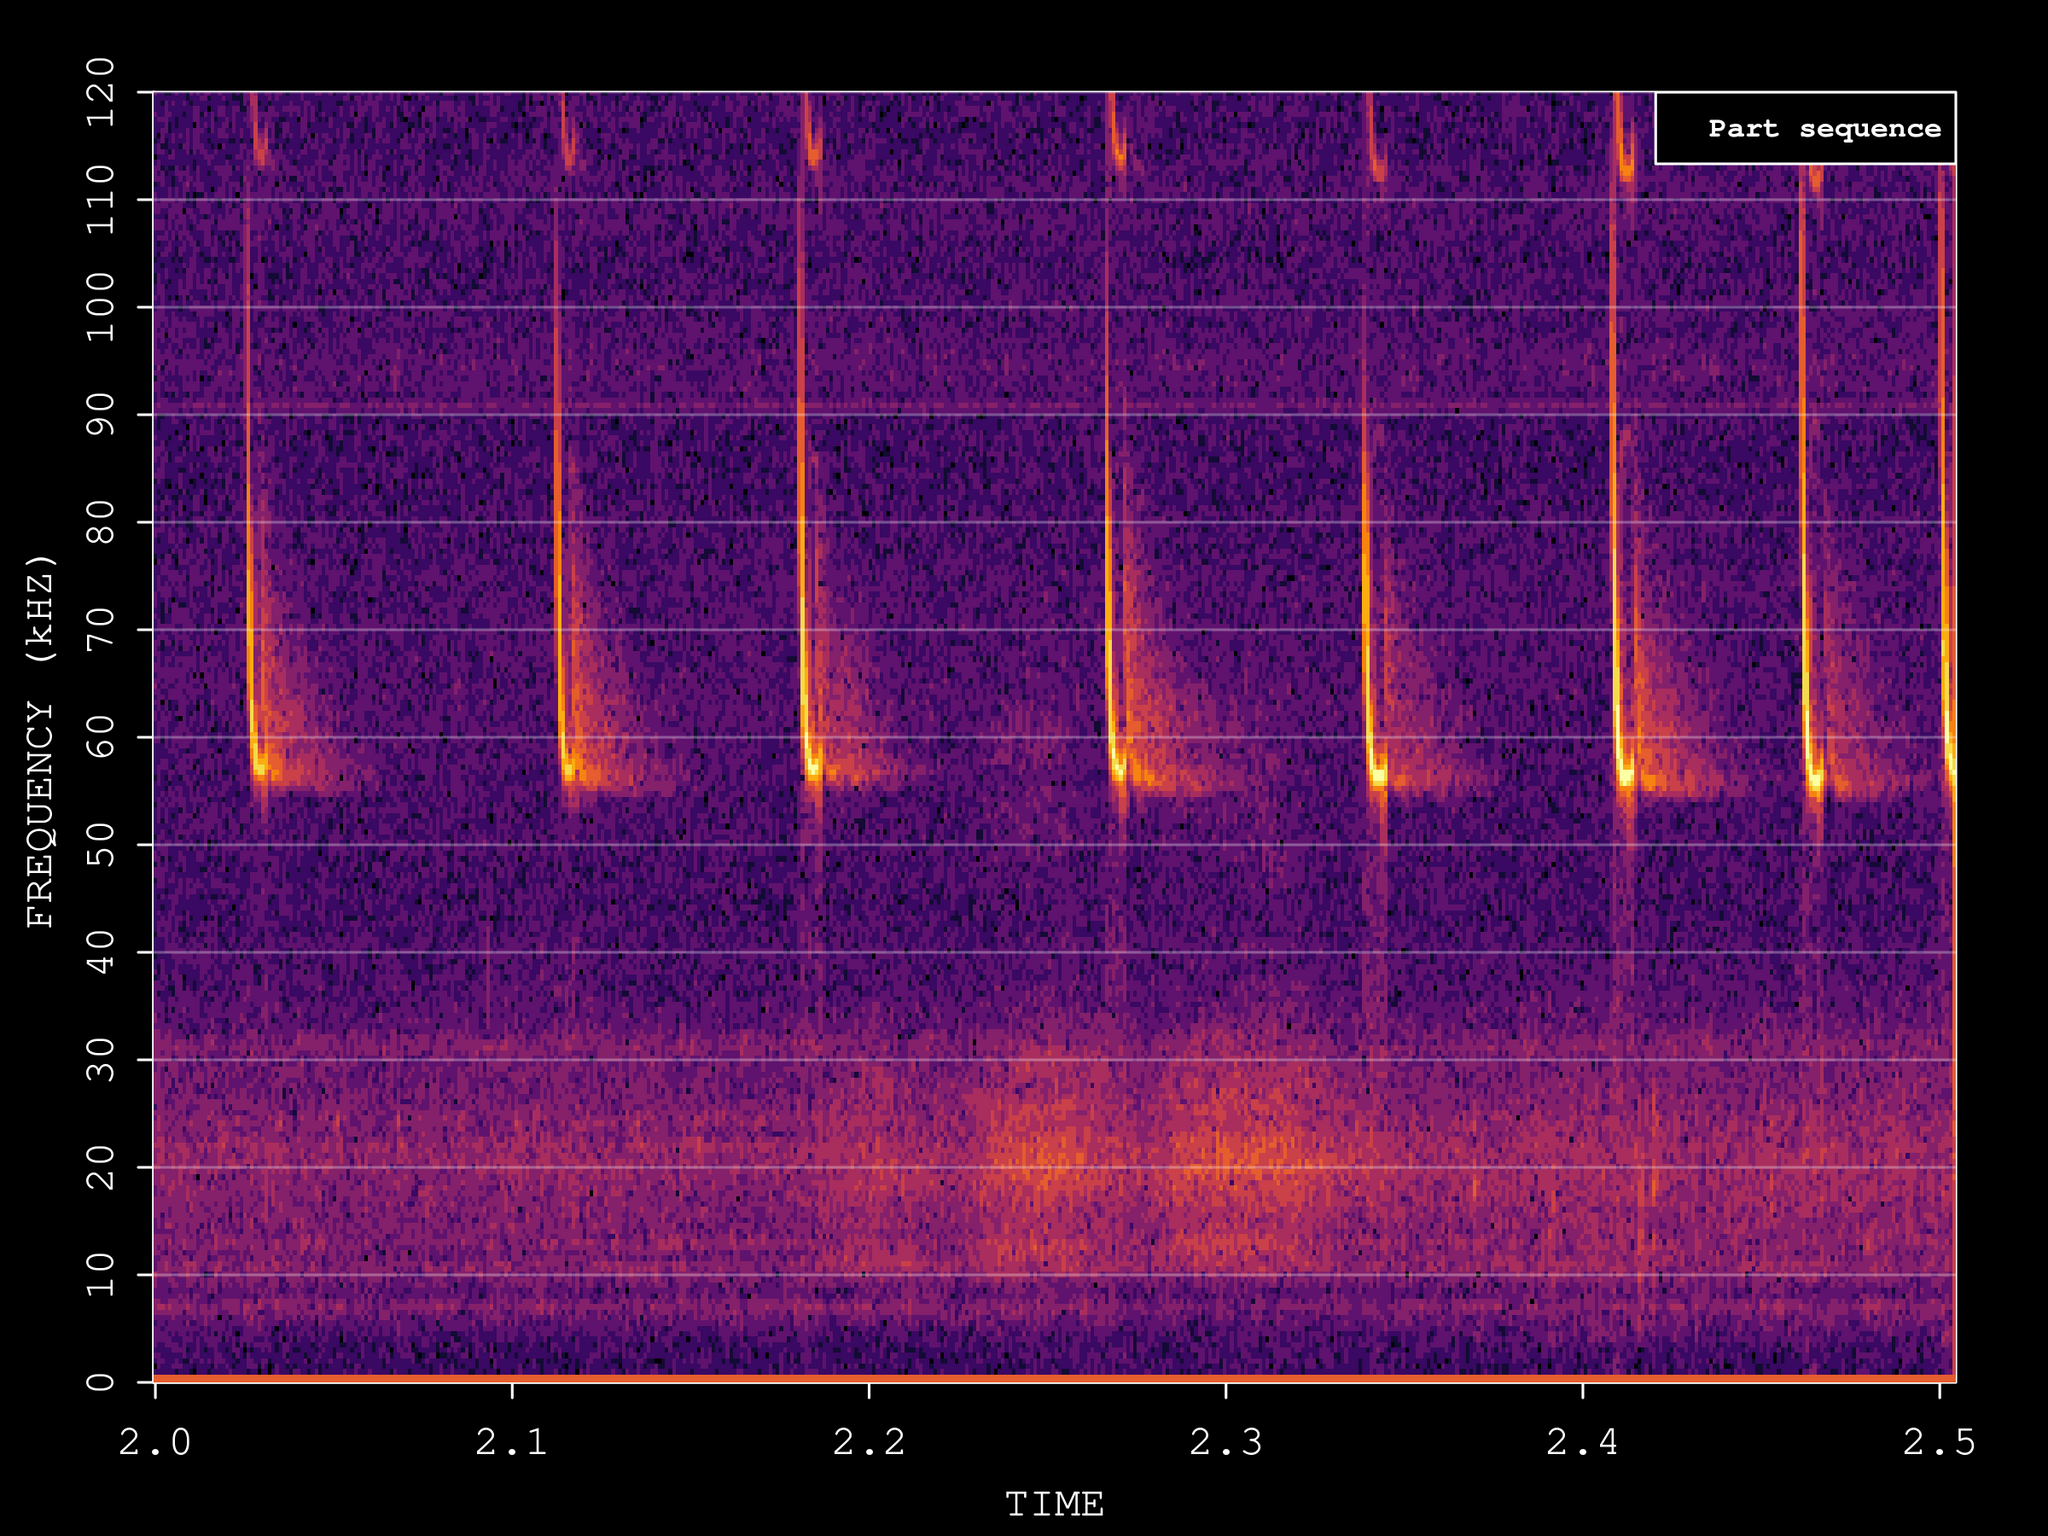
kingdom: Animalia
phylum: Chordata
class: Mammalia
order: Chiroptera
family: Vespertilionidae
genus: Pipistrellus
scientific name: Pipistrellus pygmaeus
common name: Soprano pipistrelle
